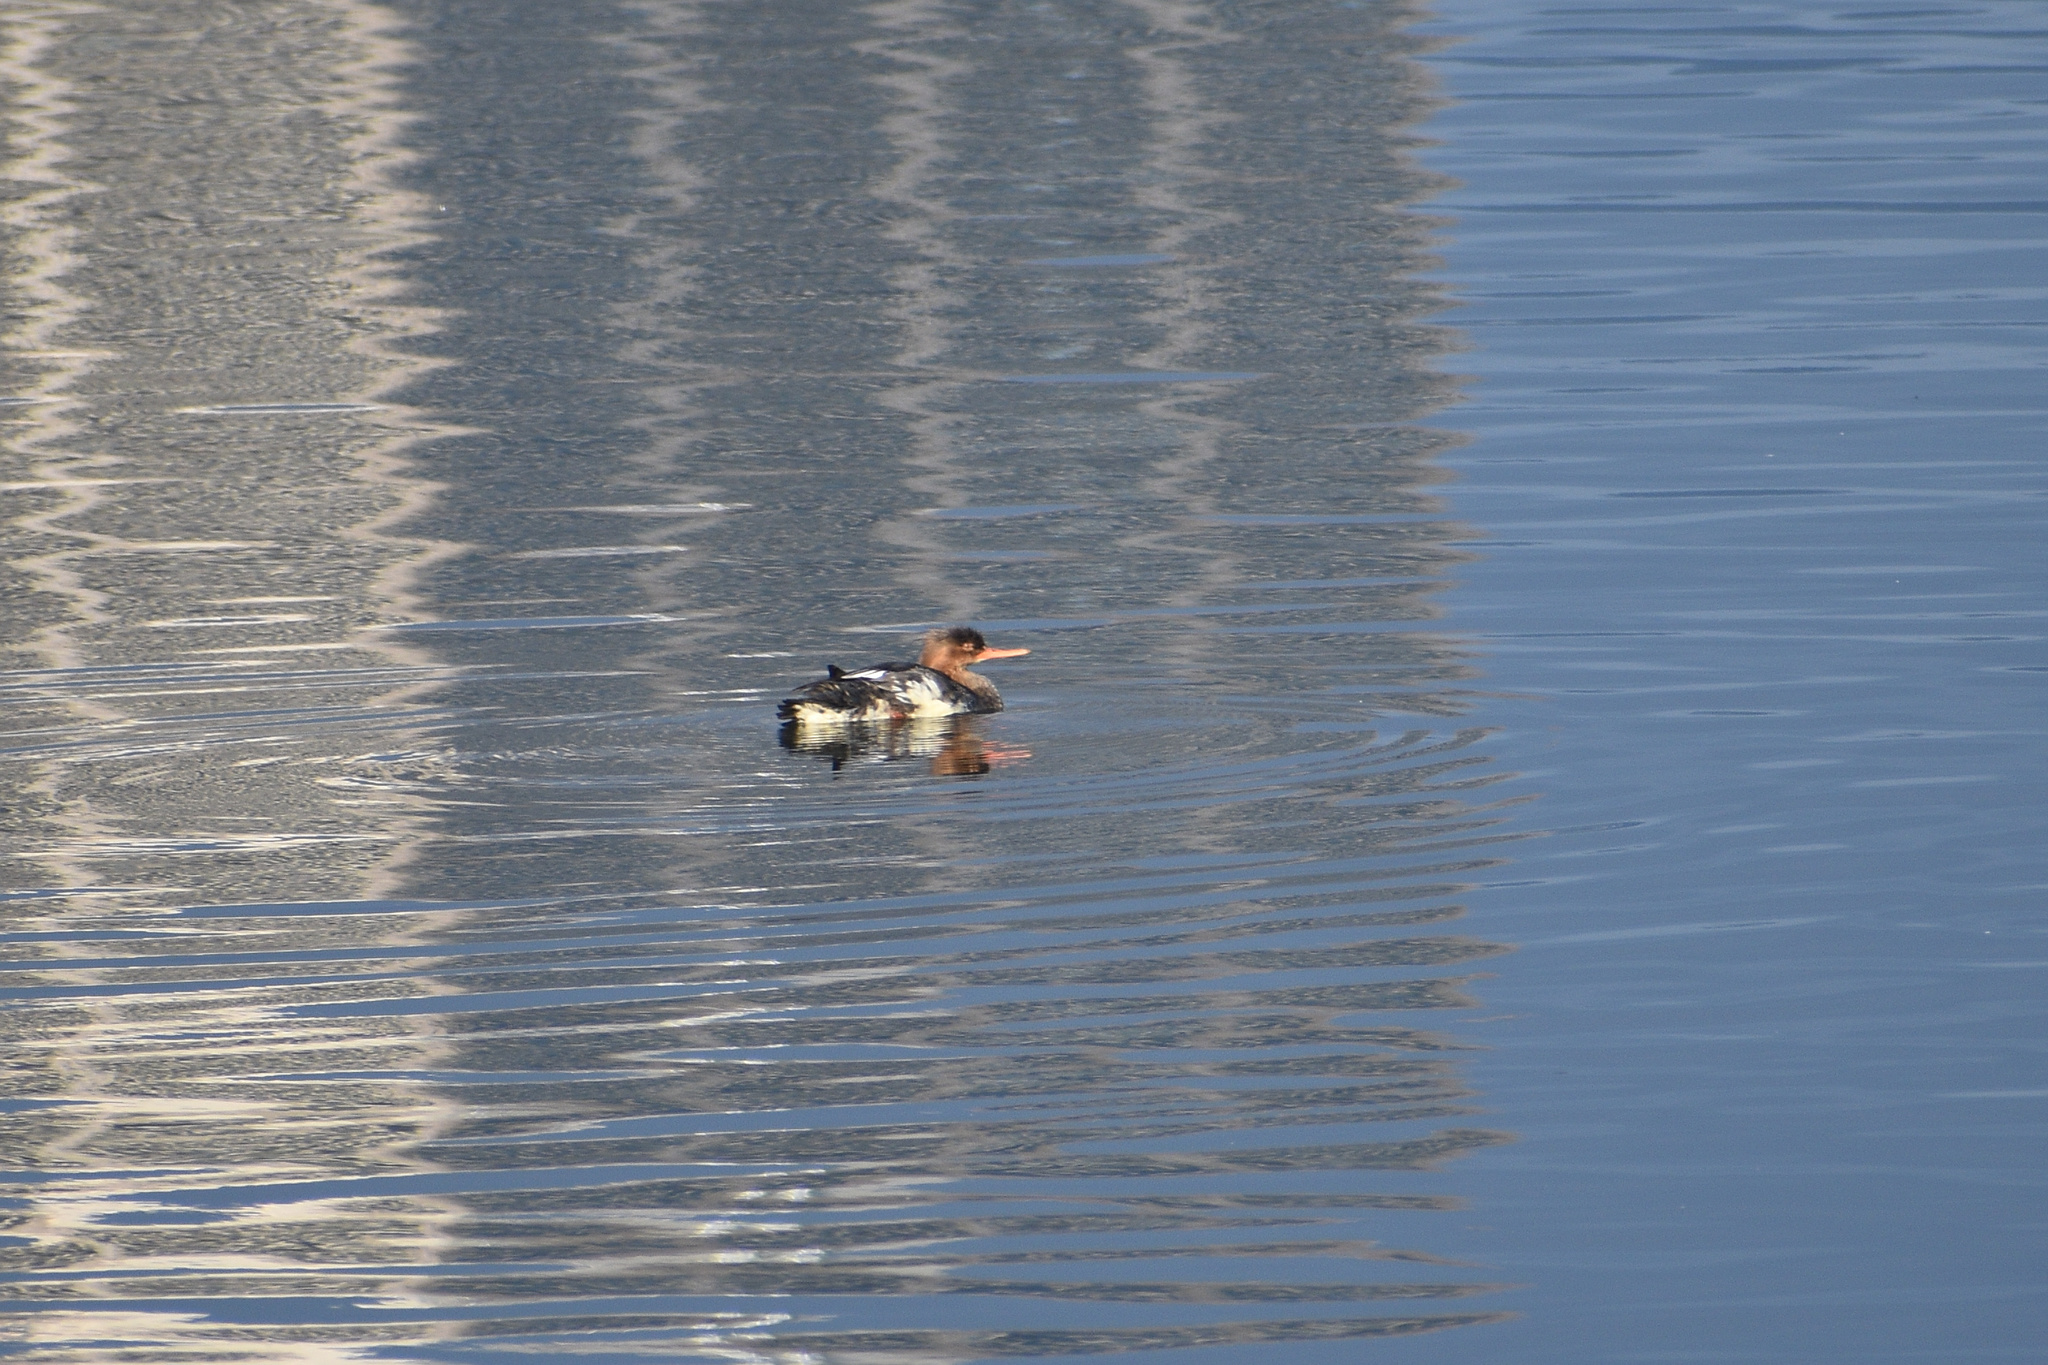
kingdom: Animalia
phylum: Chordata
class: Aves
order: Anseriformes
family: Anatidae
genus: Mergus
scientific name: Mergus serrator
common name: Red-breasted merganser
